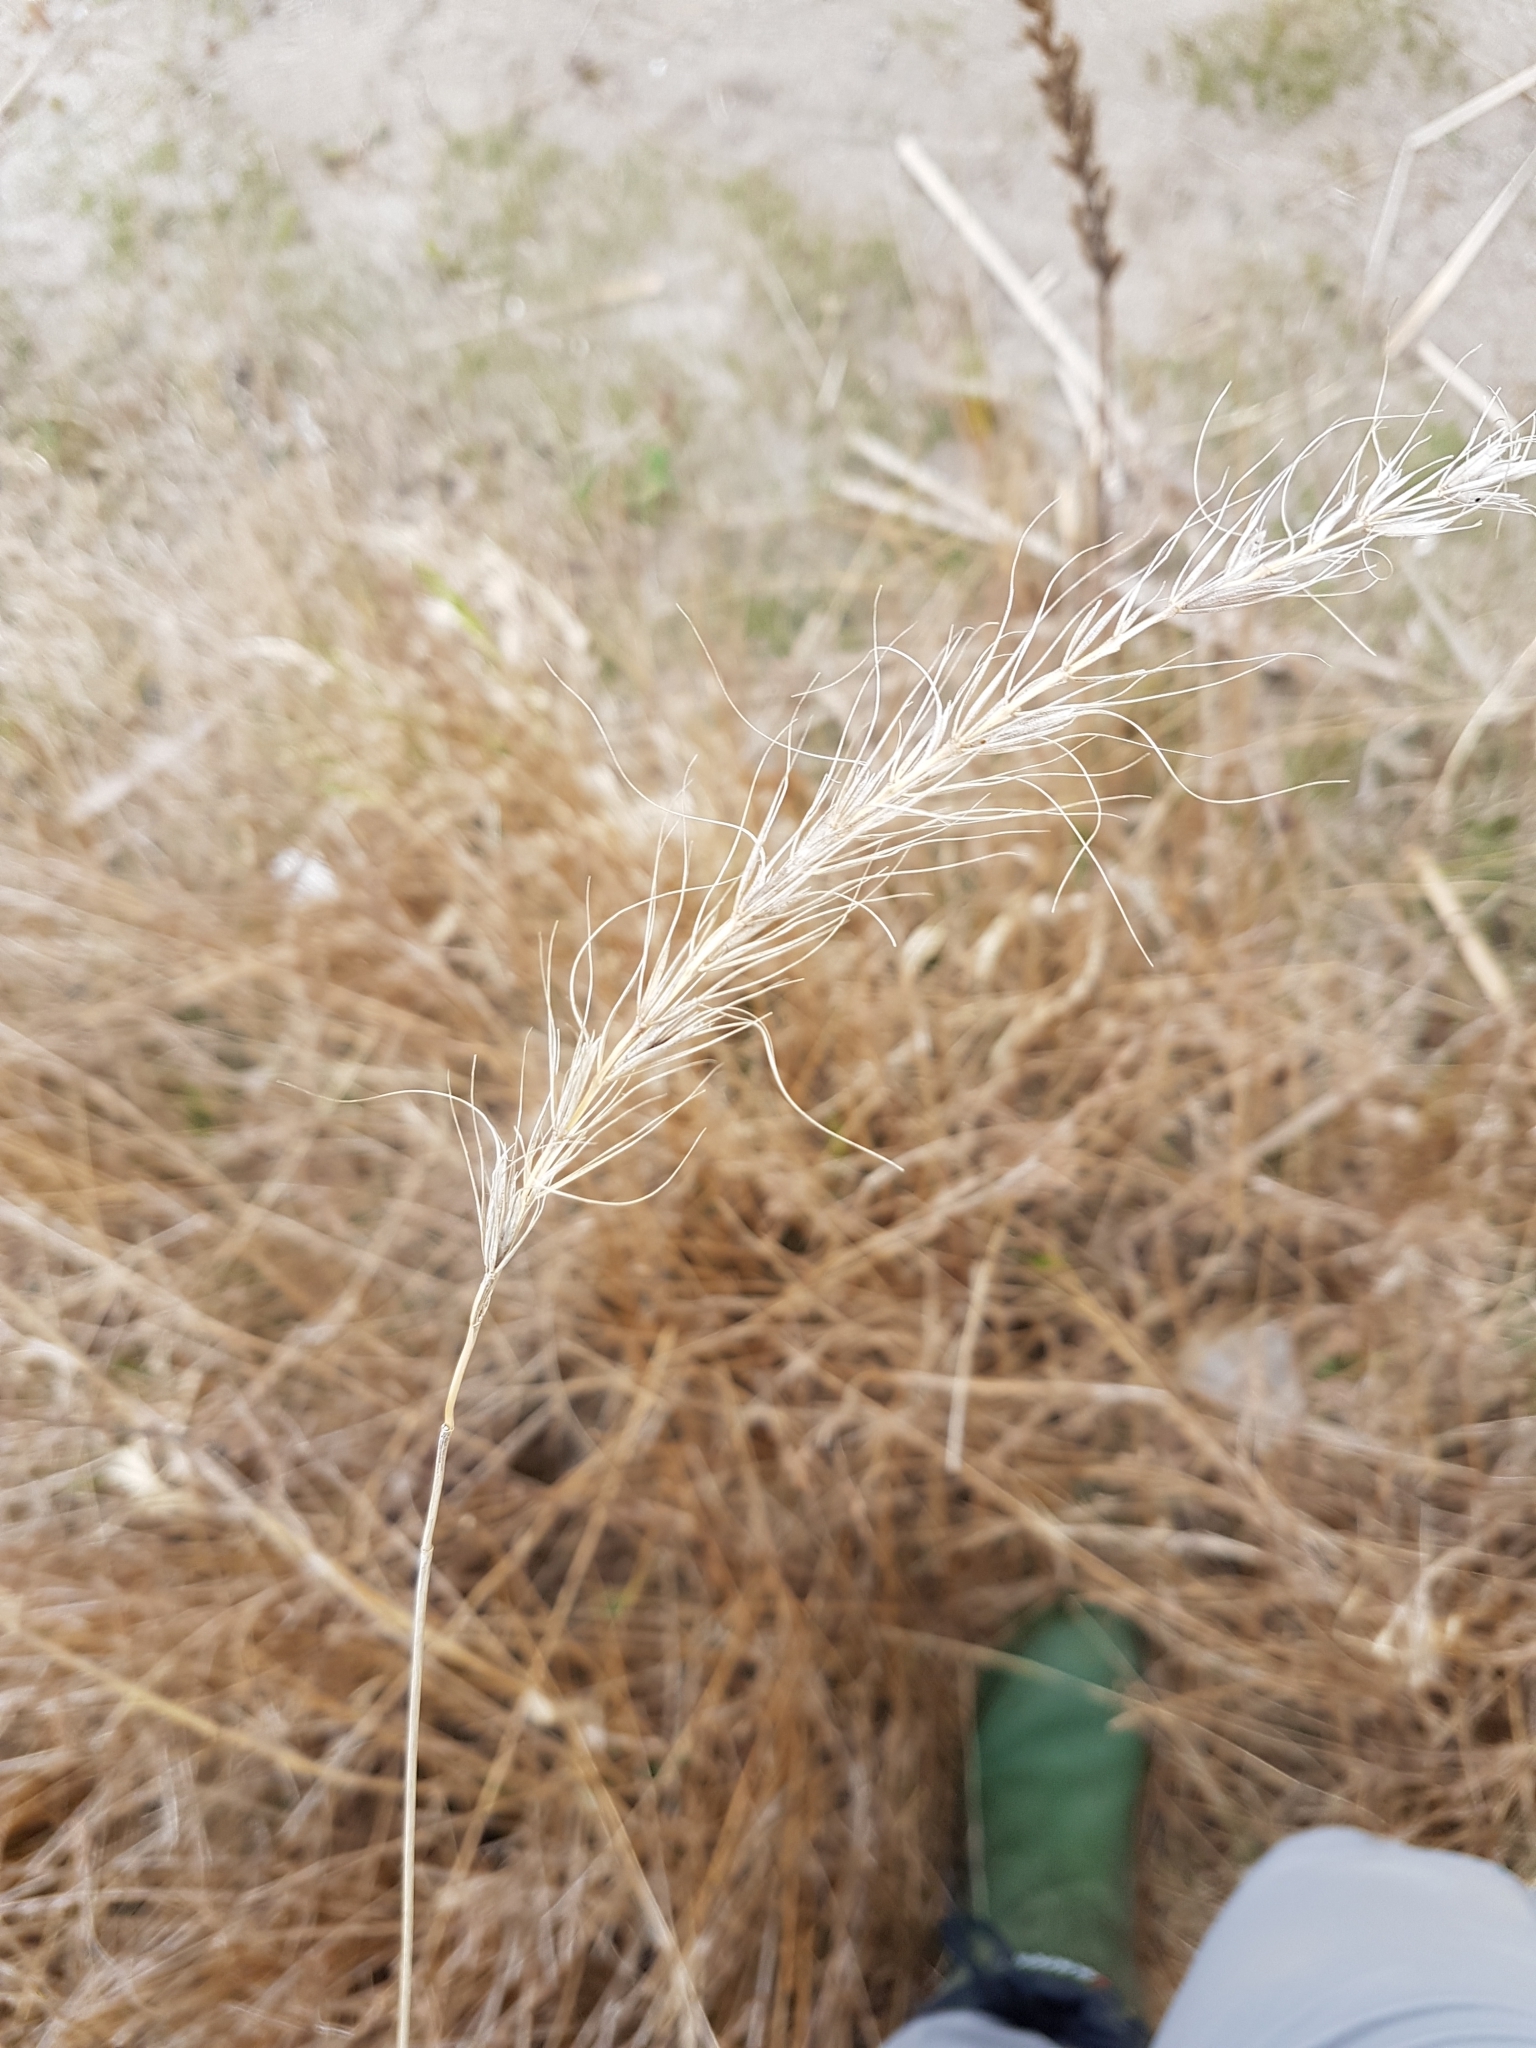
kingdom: Plantae
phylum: Tracheophyta
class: Liliopsida
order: Poales
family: Poaceae
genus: Elymus
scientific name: Elymus canadensis
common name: Canada wild rye
